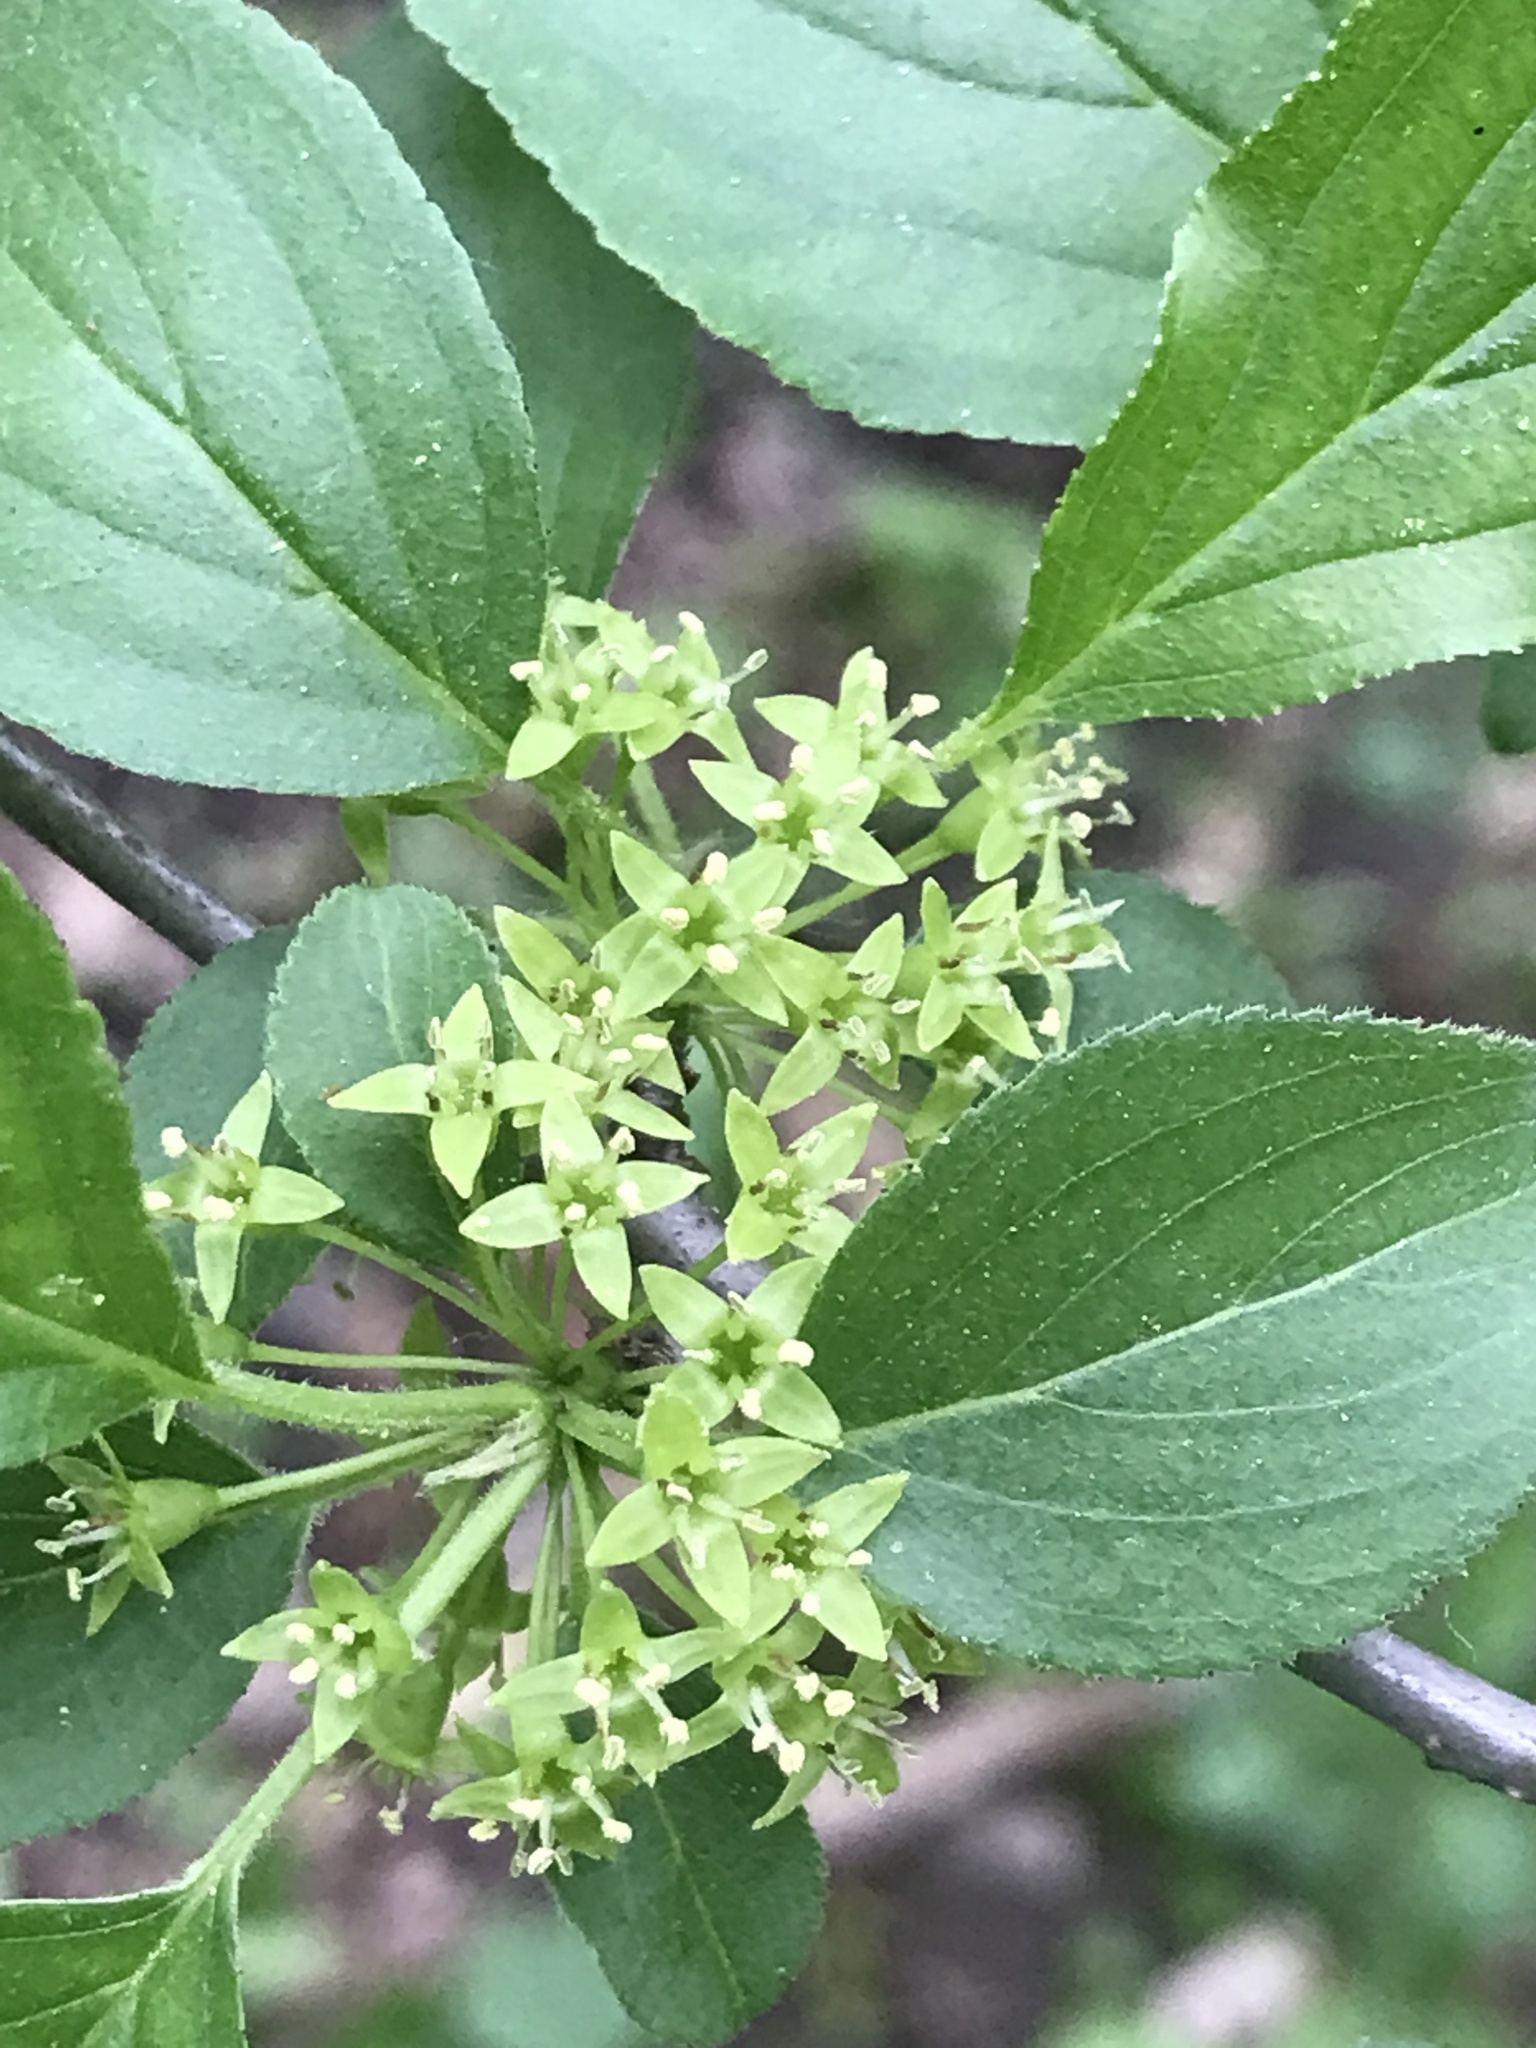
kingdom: Plantae
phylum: Tracheophyta
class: Magnoliopsida
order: Rosales
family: Rhamnaceae
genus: Rhamnus
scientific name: Rhamnus cathartica
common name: Common buckthorn
